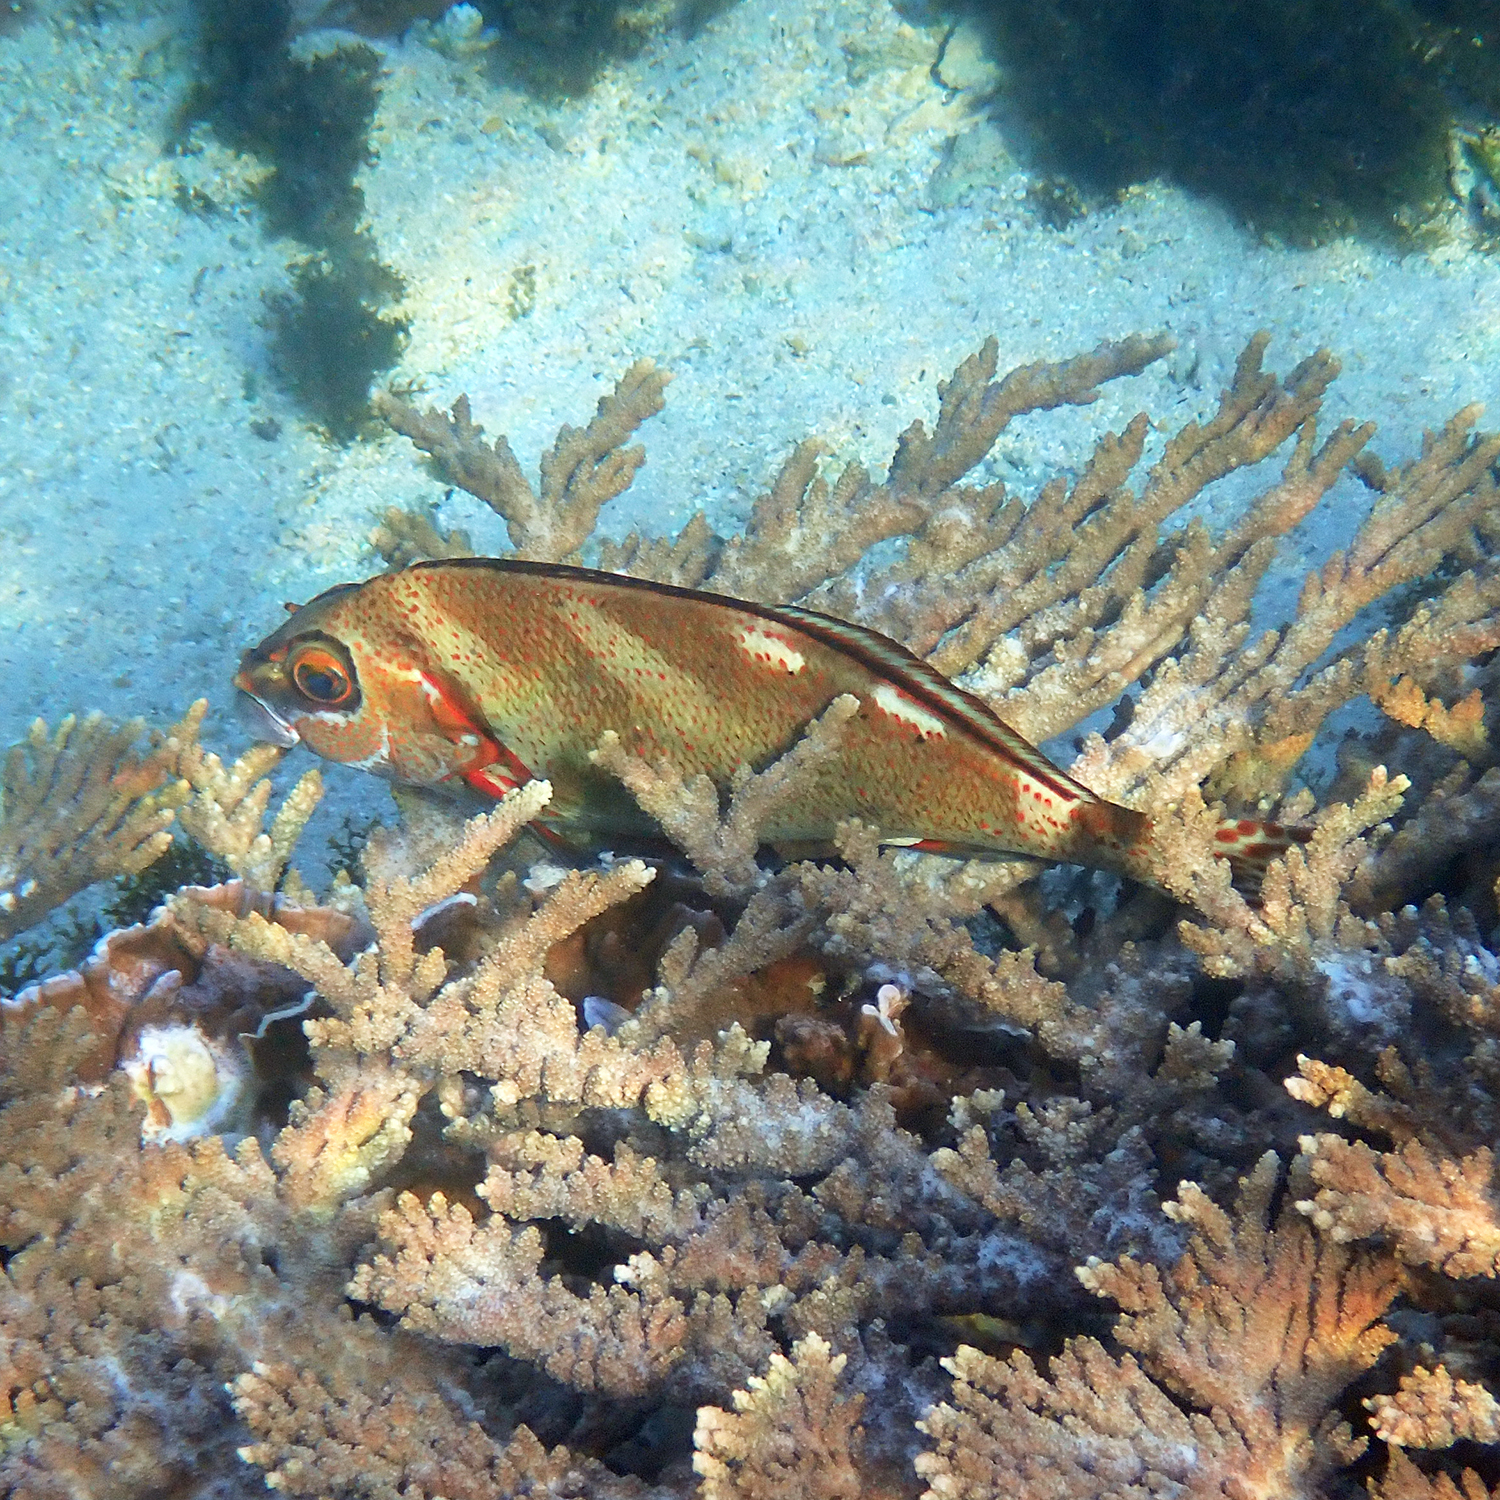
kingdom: Animalia
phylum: Chordata
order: Perciformes
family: Latridae
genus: Morwong
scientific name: Morwong ephippium
